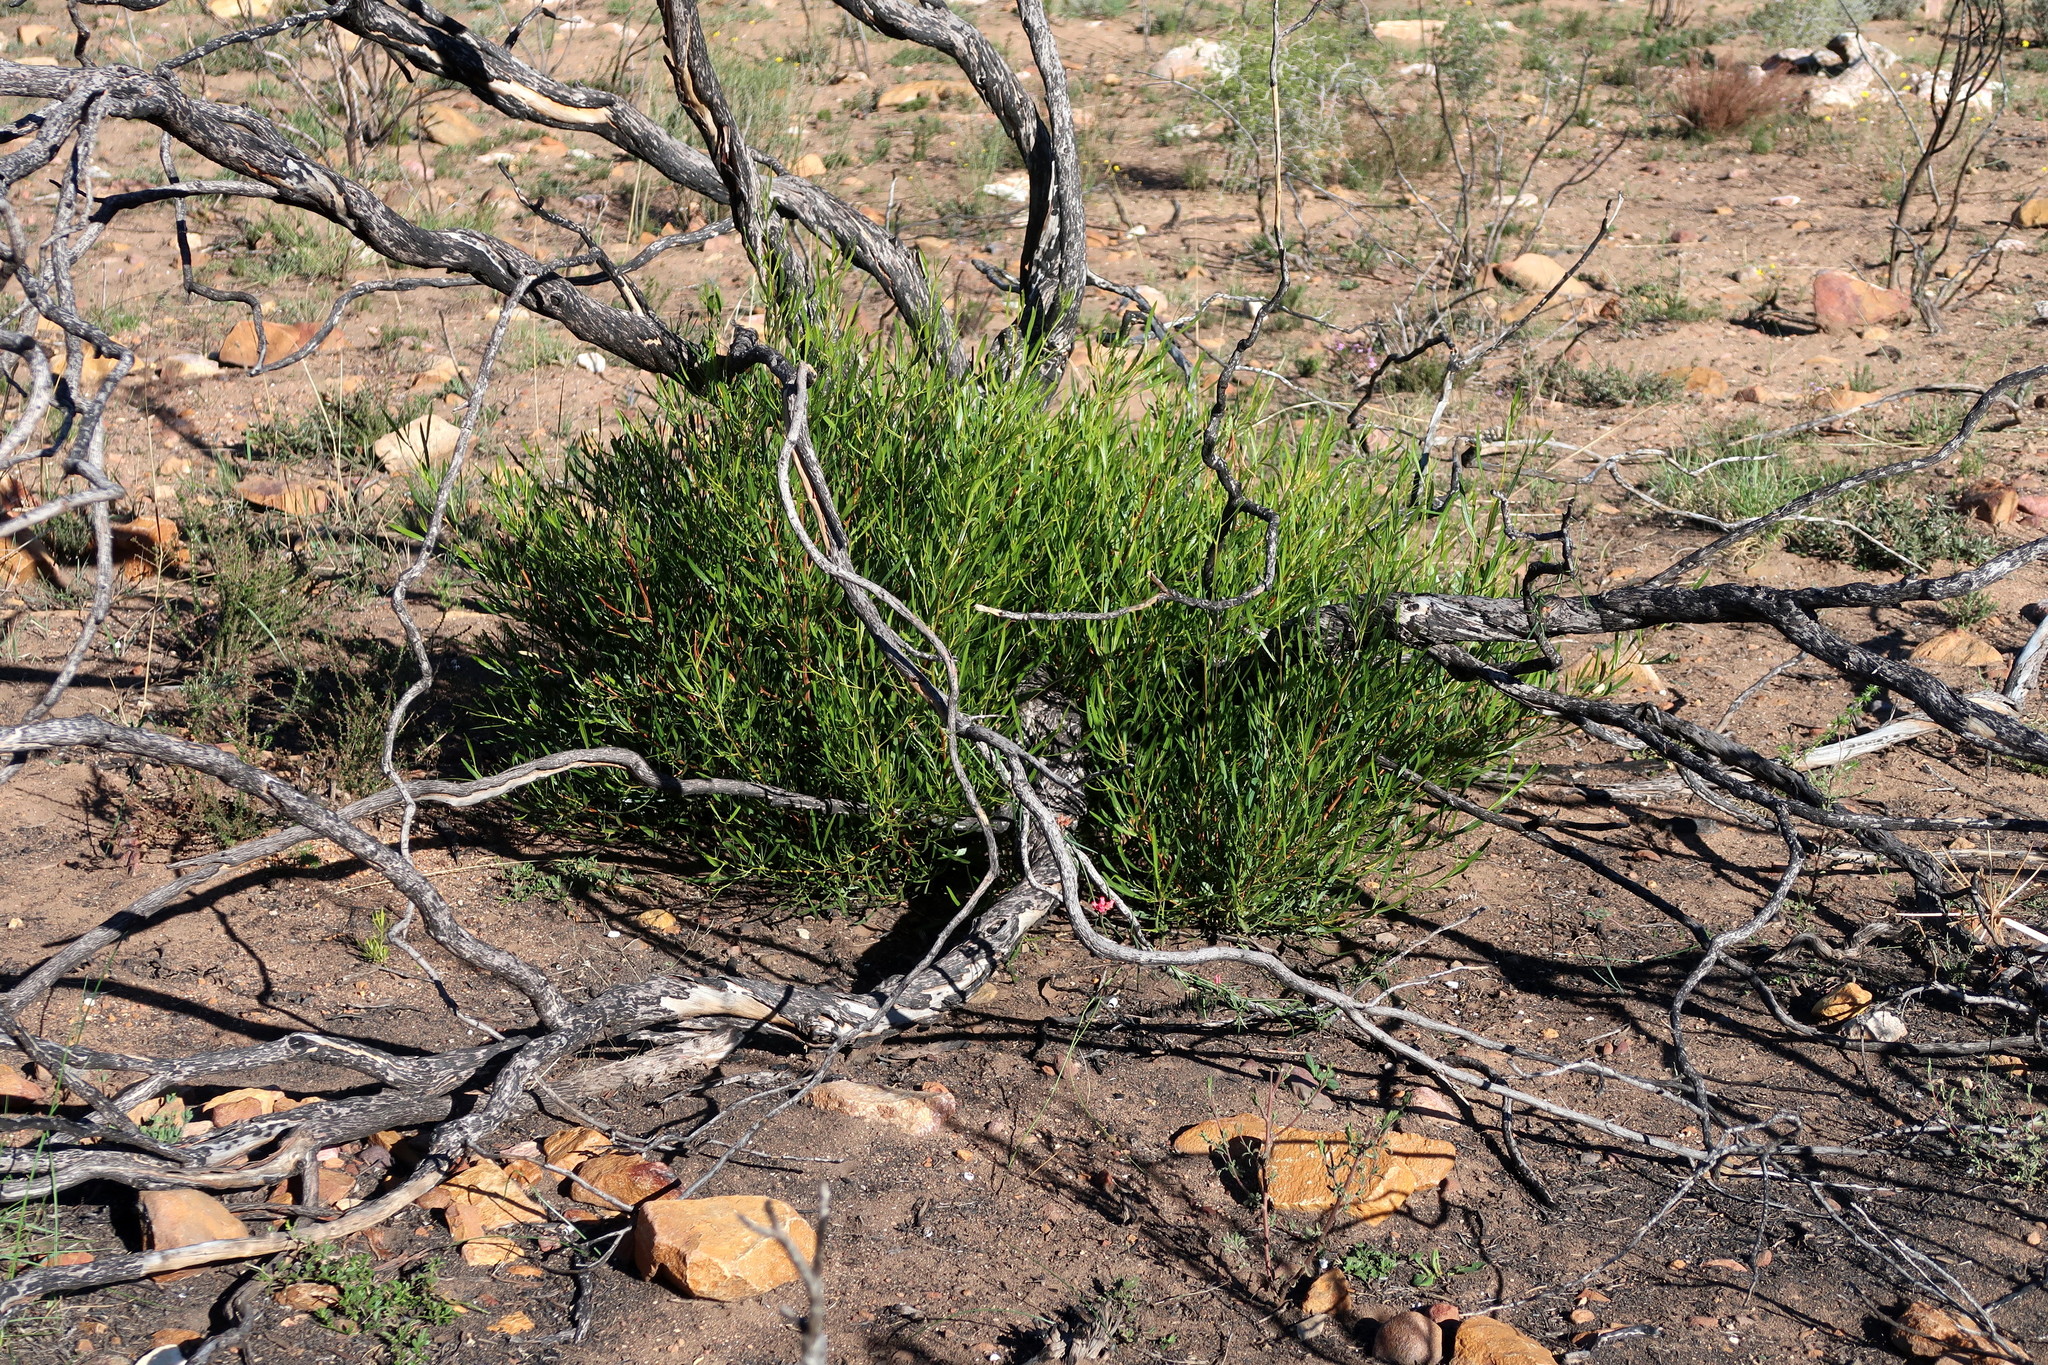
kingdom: Plantae
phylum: Tracheophyta
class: Magnoliopsida
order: Sapindales
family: Sapindaceae
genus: Dodonaea
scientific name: Dodonaea viscosa
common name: Hopbush
